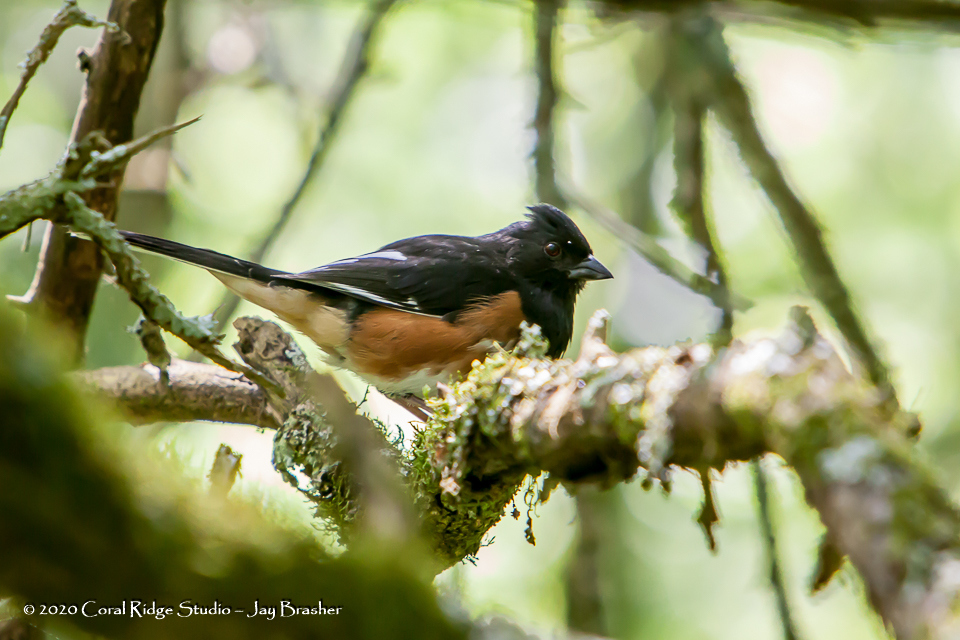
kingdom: Animalia
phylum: Chordata
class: Aves
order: Passeriformes
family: Passerellidae
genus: Pipilo
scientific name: Pipilo erythrophthalmus
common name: Eastern towhee
